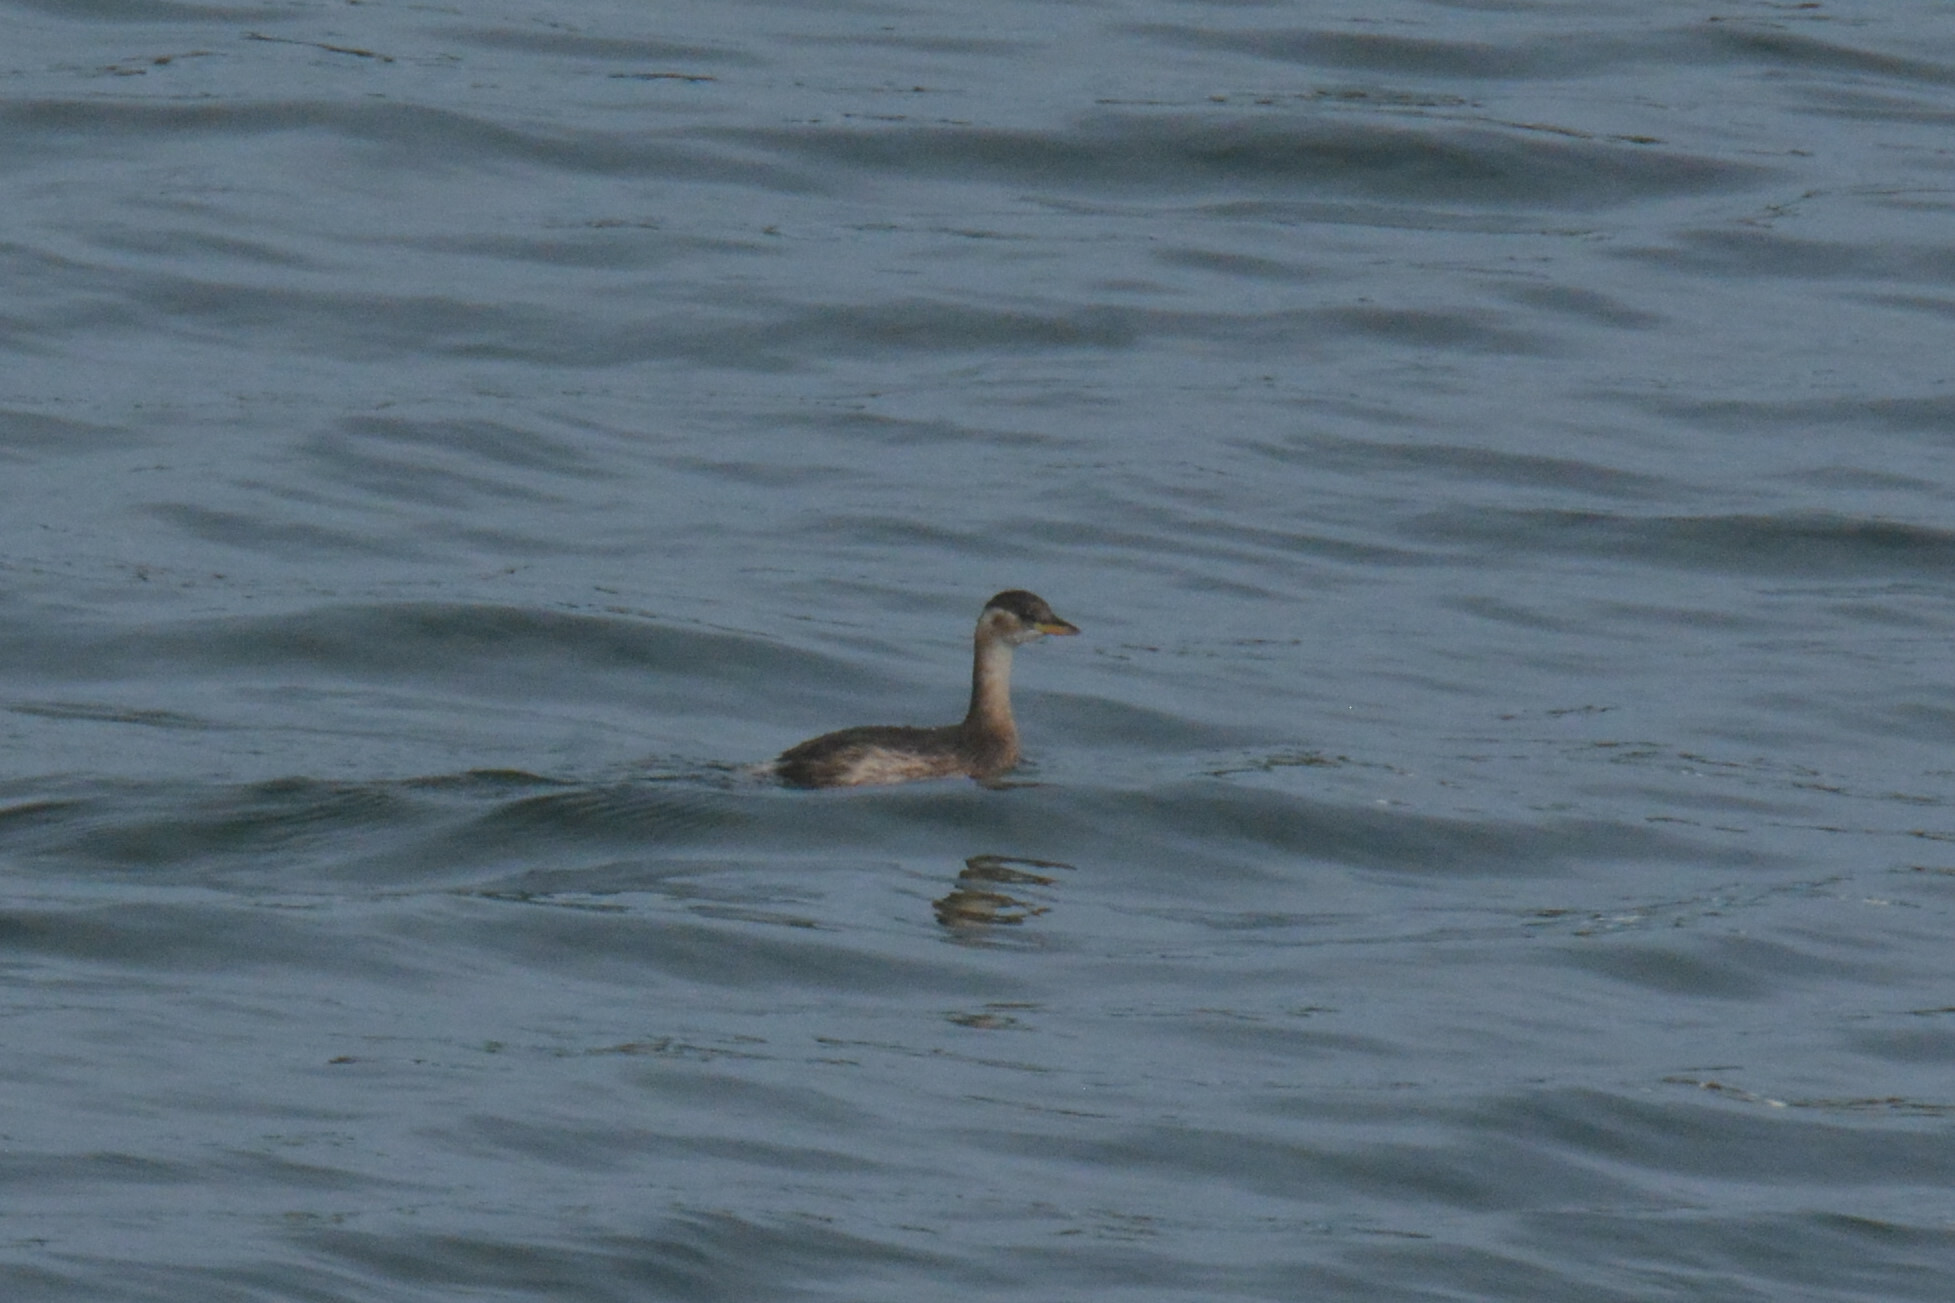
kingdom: Animalia
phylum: Chordata
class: Aves
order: Podicipediformes
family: Podicipedidae
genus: Tachybaptus
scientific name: Tachybaptus ruficollis
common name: Little grebe
